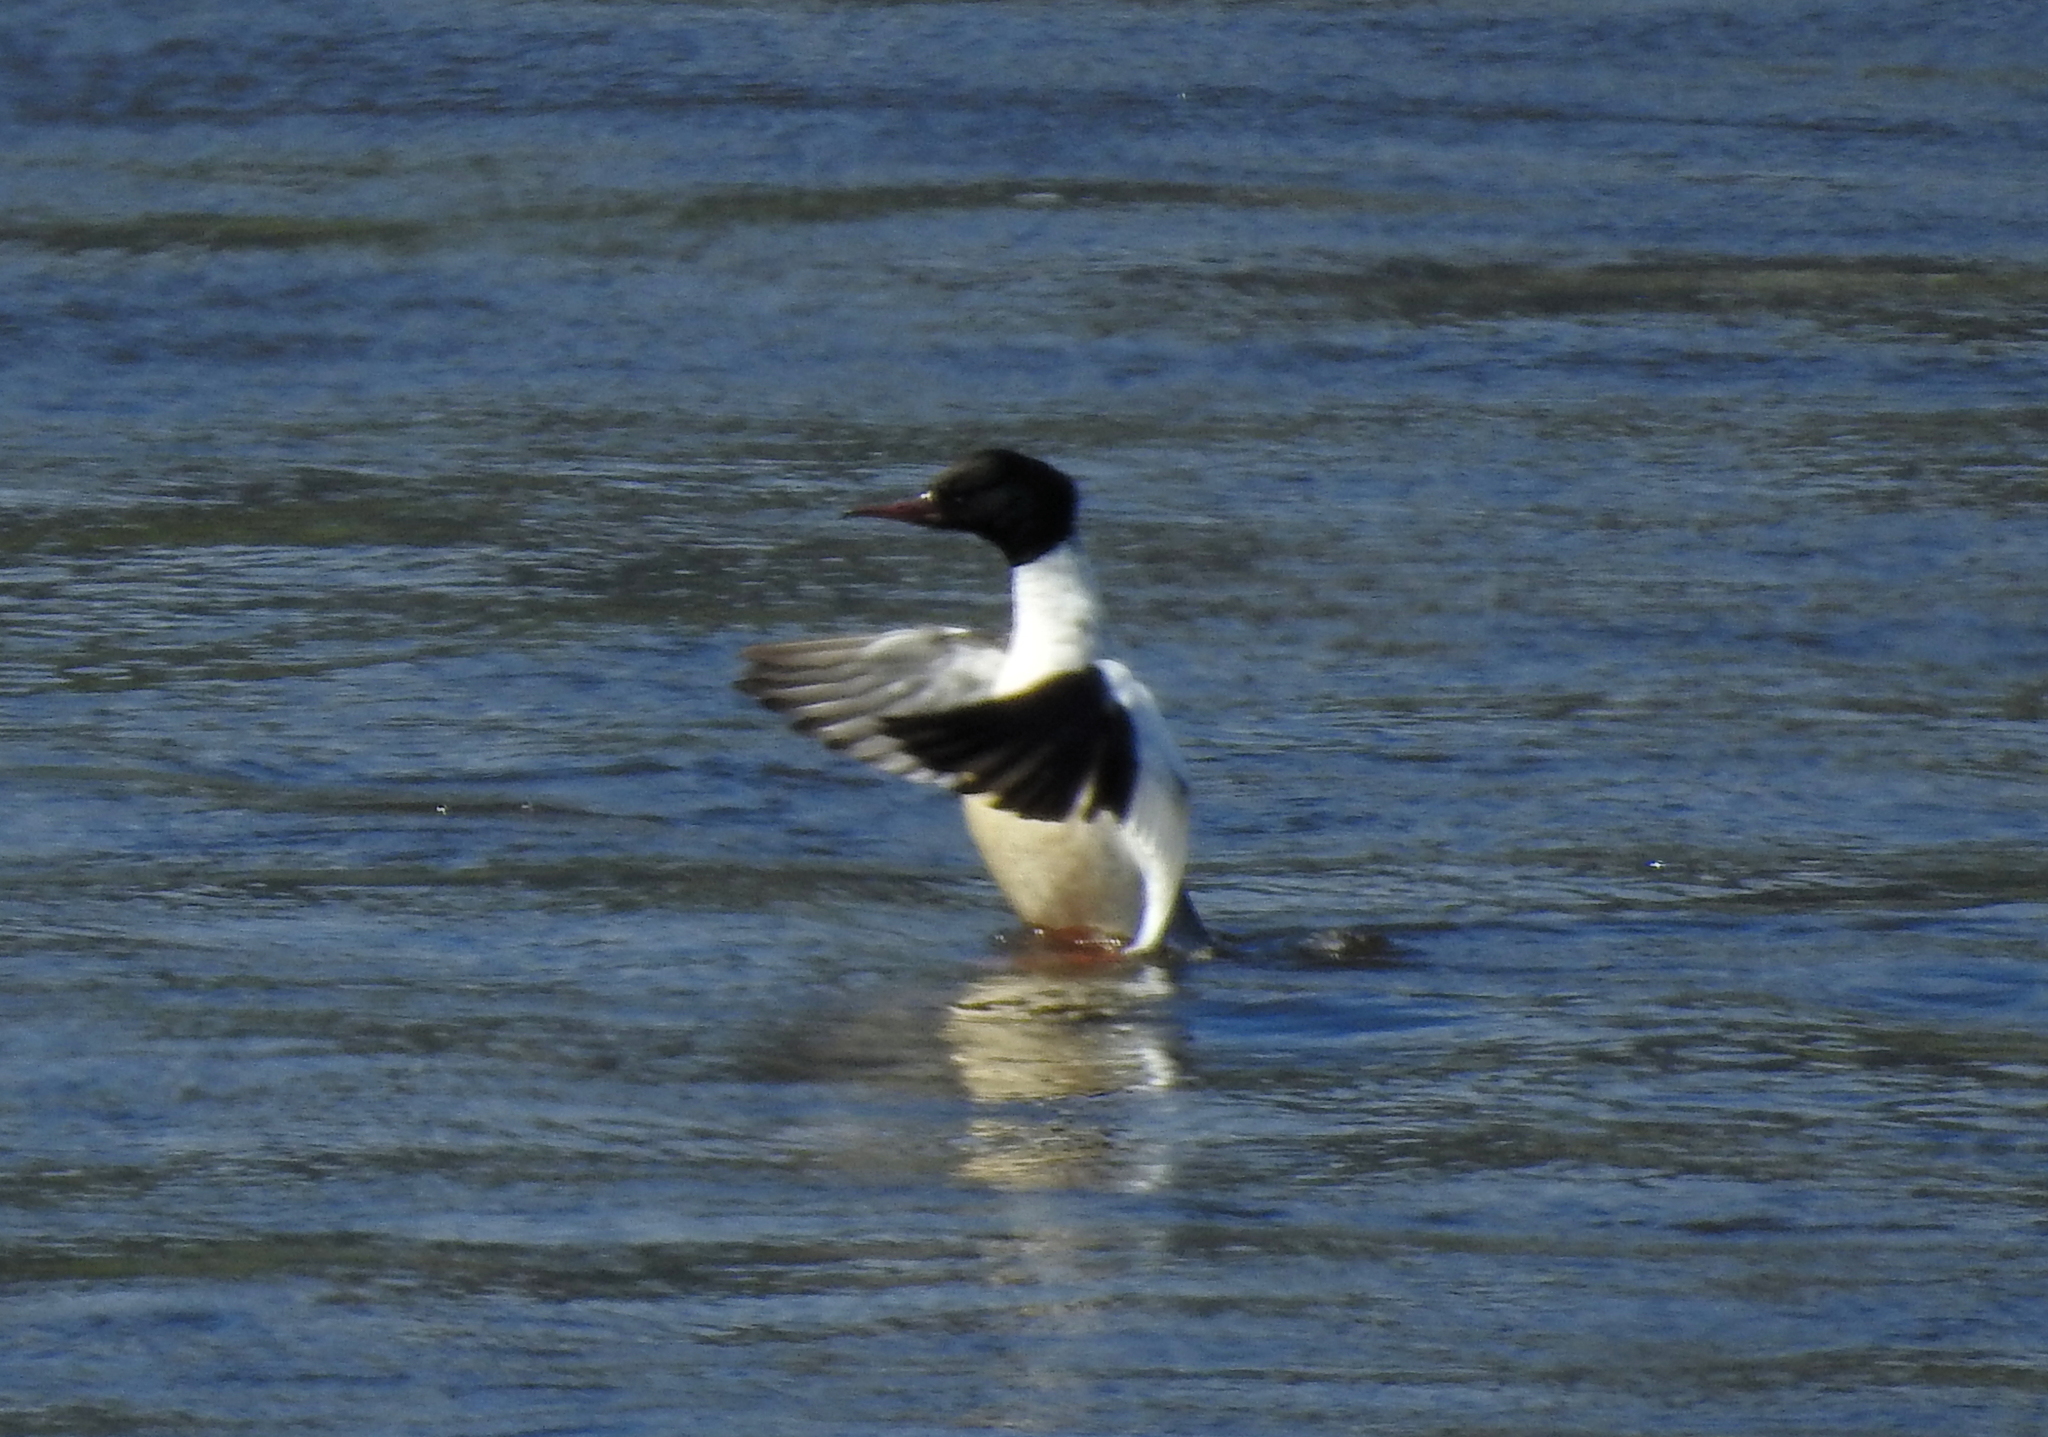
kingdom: Animalia
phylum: Chordata
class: Aves
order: Anseriformes
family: Anatidae
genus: Mergus
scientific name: Mergus merganser
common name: Common merganser
